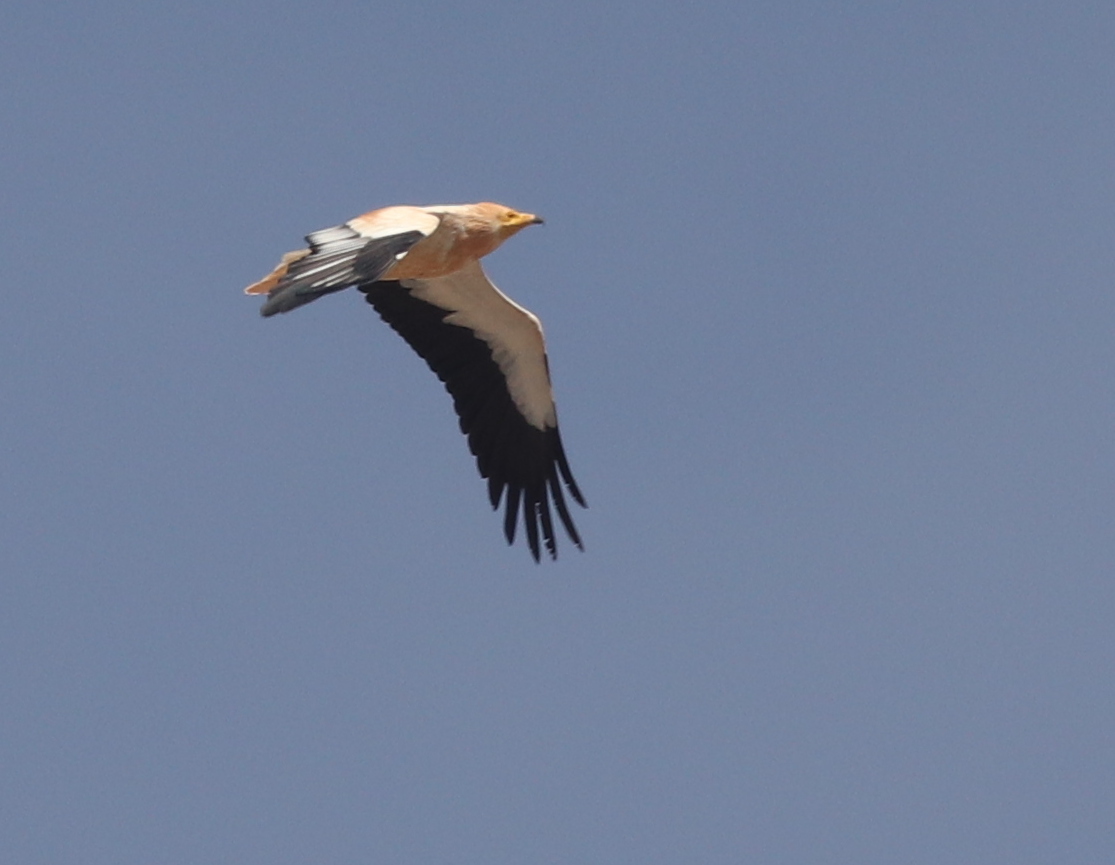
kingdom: Animalia
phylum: Chordata
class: Aves
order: Accipitriformes
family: Accipitridae
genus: Neophron
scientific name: Neophron percnopterus
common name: Egyptian vulture
